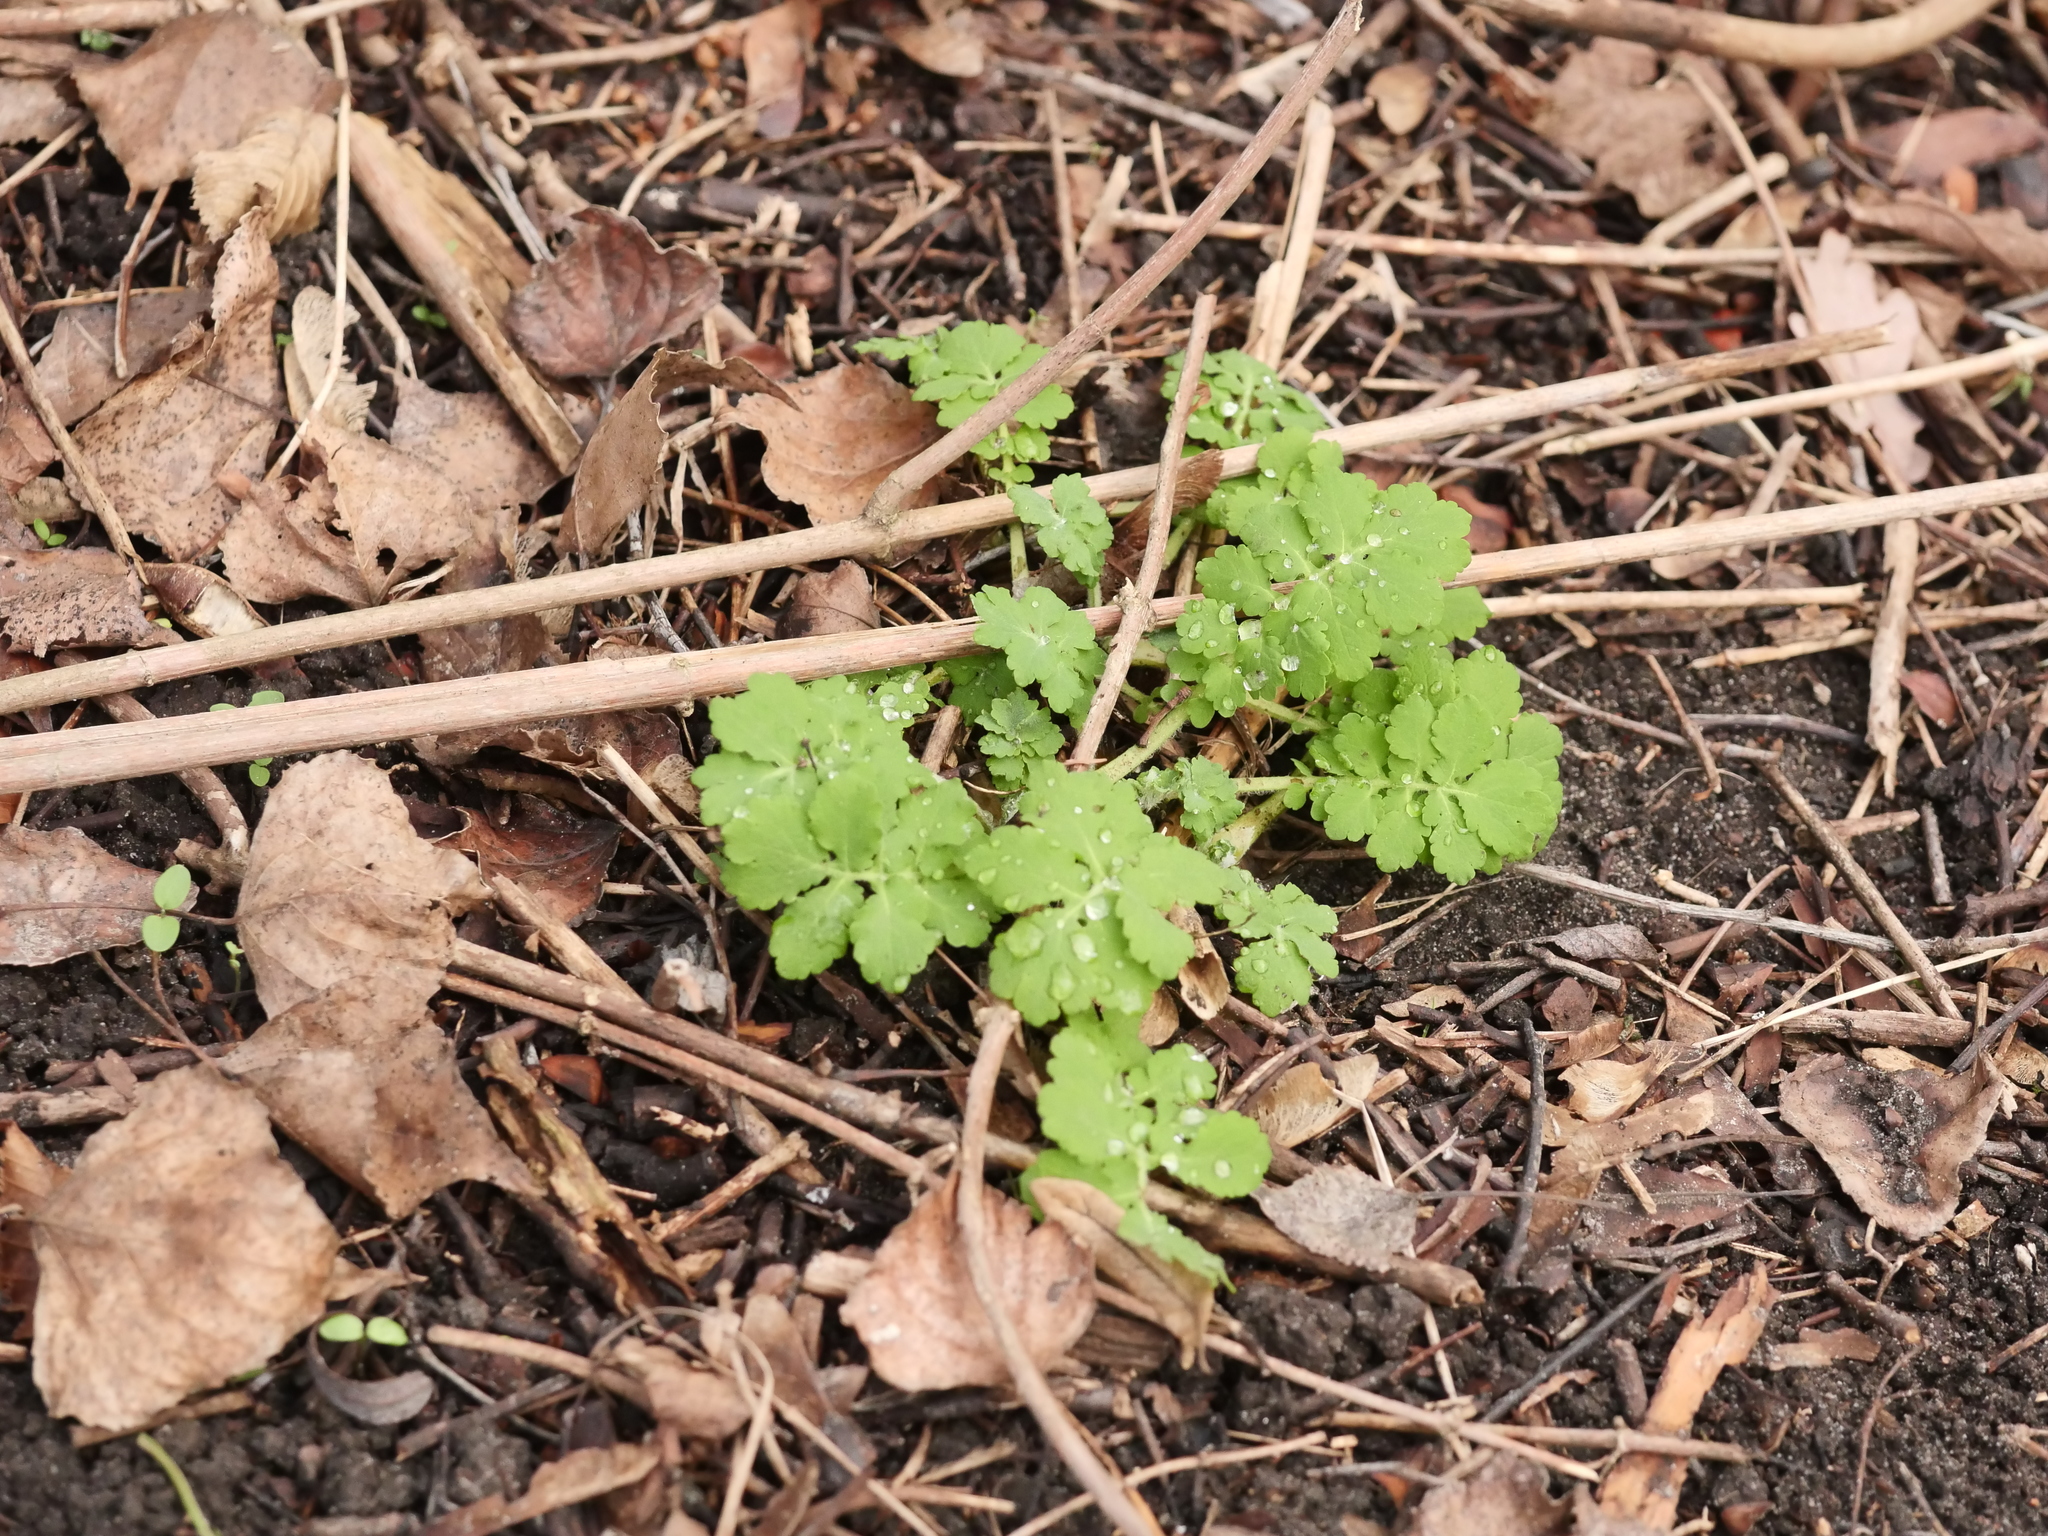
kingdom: Plantae
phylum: Tracheophyta
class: Magnoliopsida
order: Ranunculales
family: Papaveraceae
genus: Chelidonium
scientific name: Chelidonium majus
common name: Greater celandine
